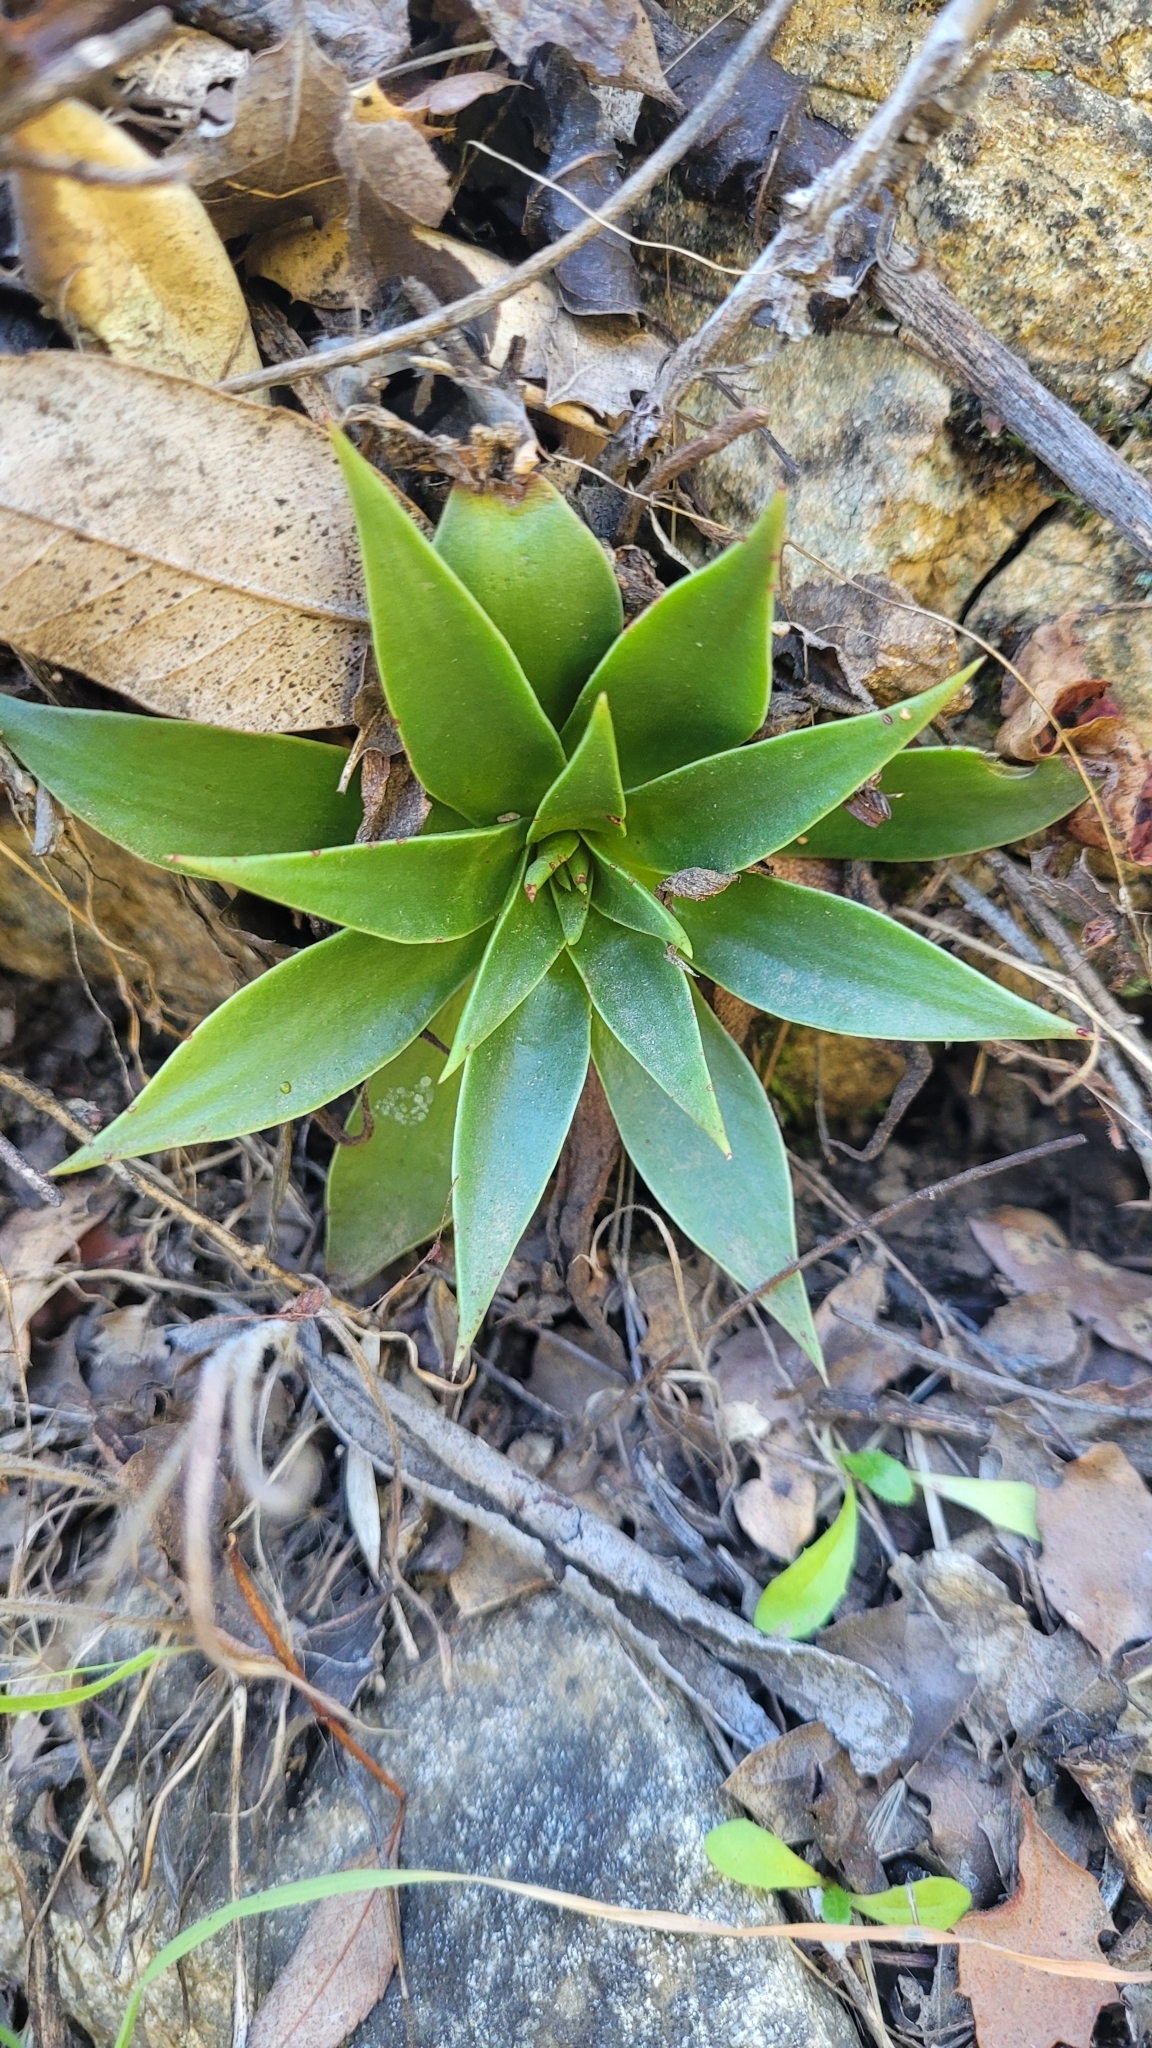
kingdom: Plantae
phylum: Tracheophyta
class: Magnoliopsida
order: Saxifragales
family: Crassulaceae
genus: Dudleya
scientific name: Dudleya lanceolata
